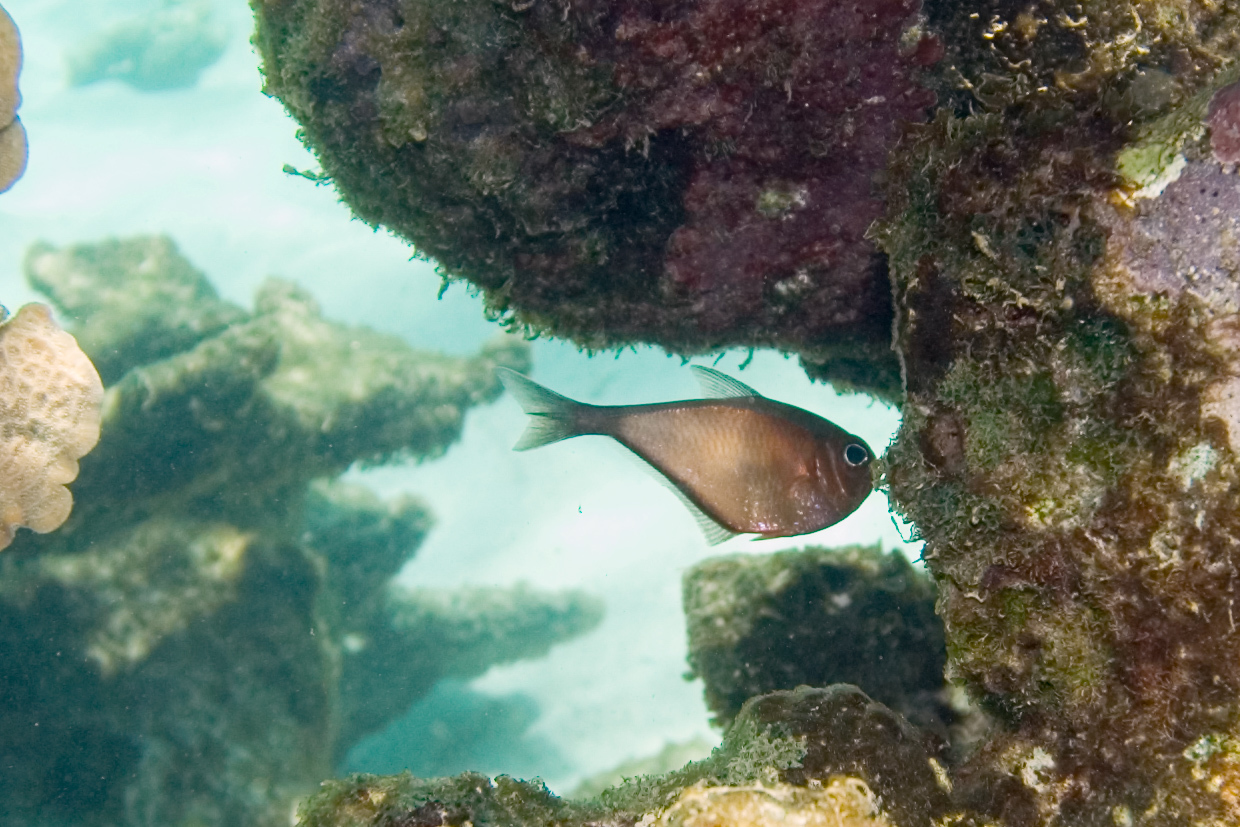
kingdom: Animalia
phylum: Chordata
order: Perciformes
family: Pempheridae
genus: Pempheris
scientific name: Pempheris schomburgkii
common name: Glassy sweeper
